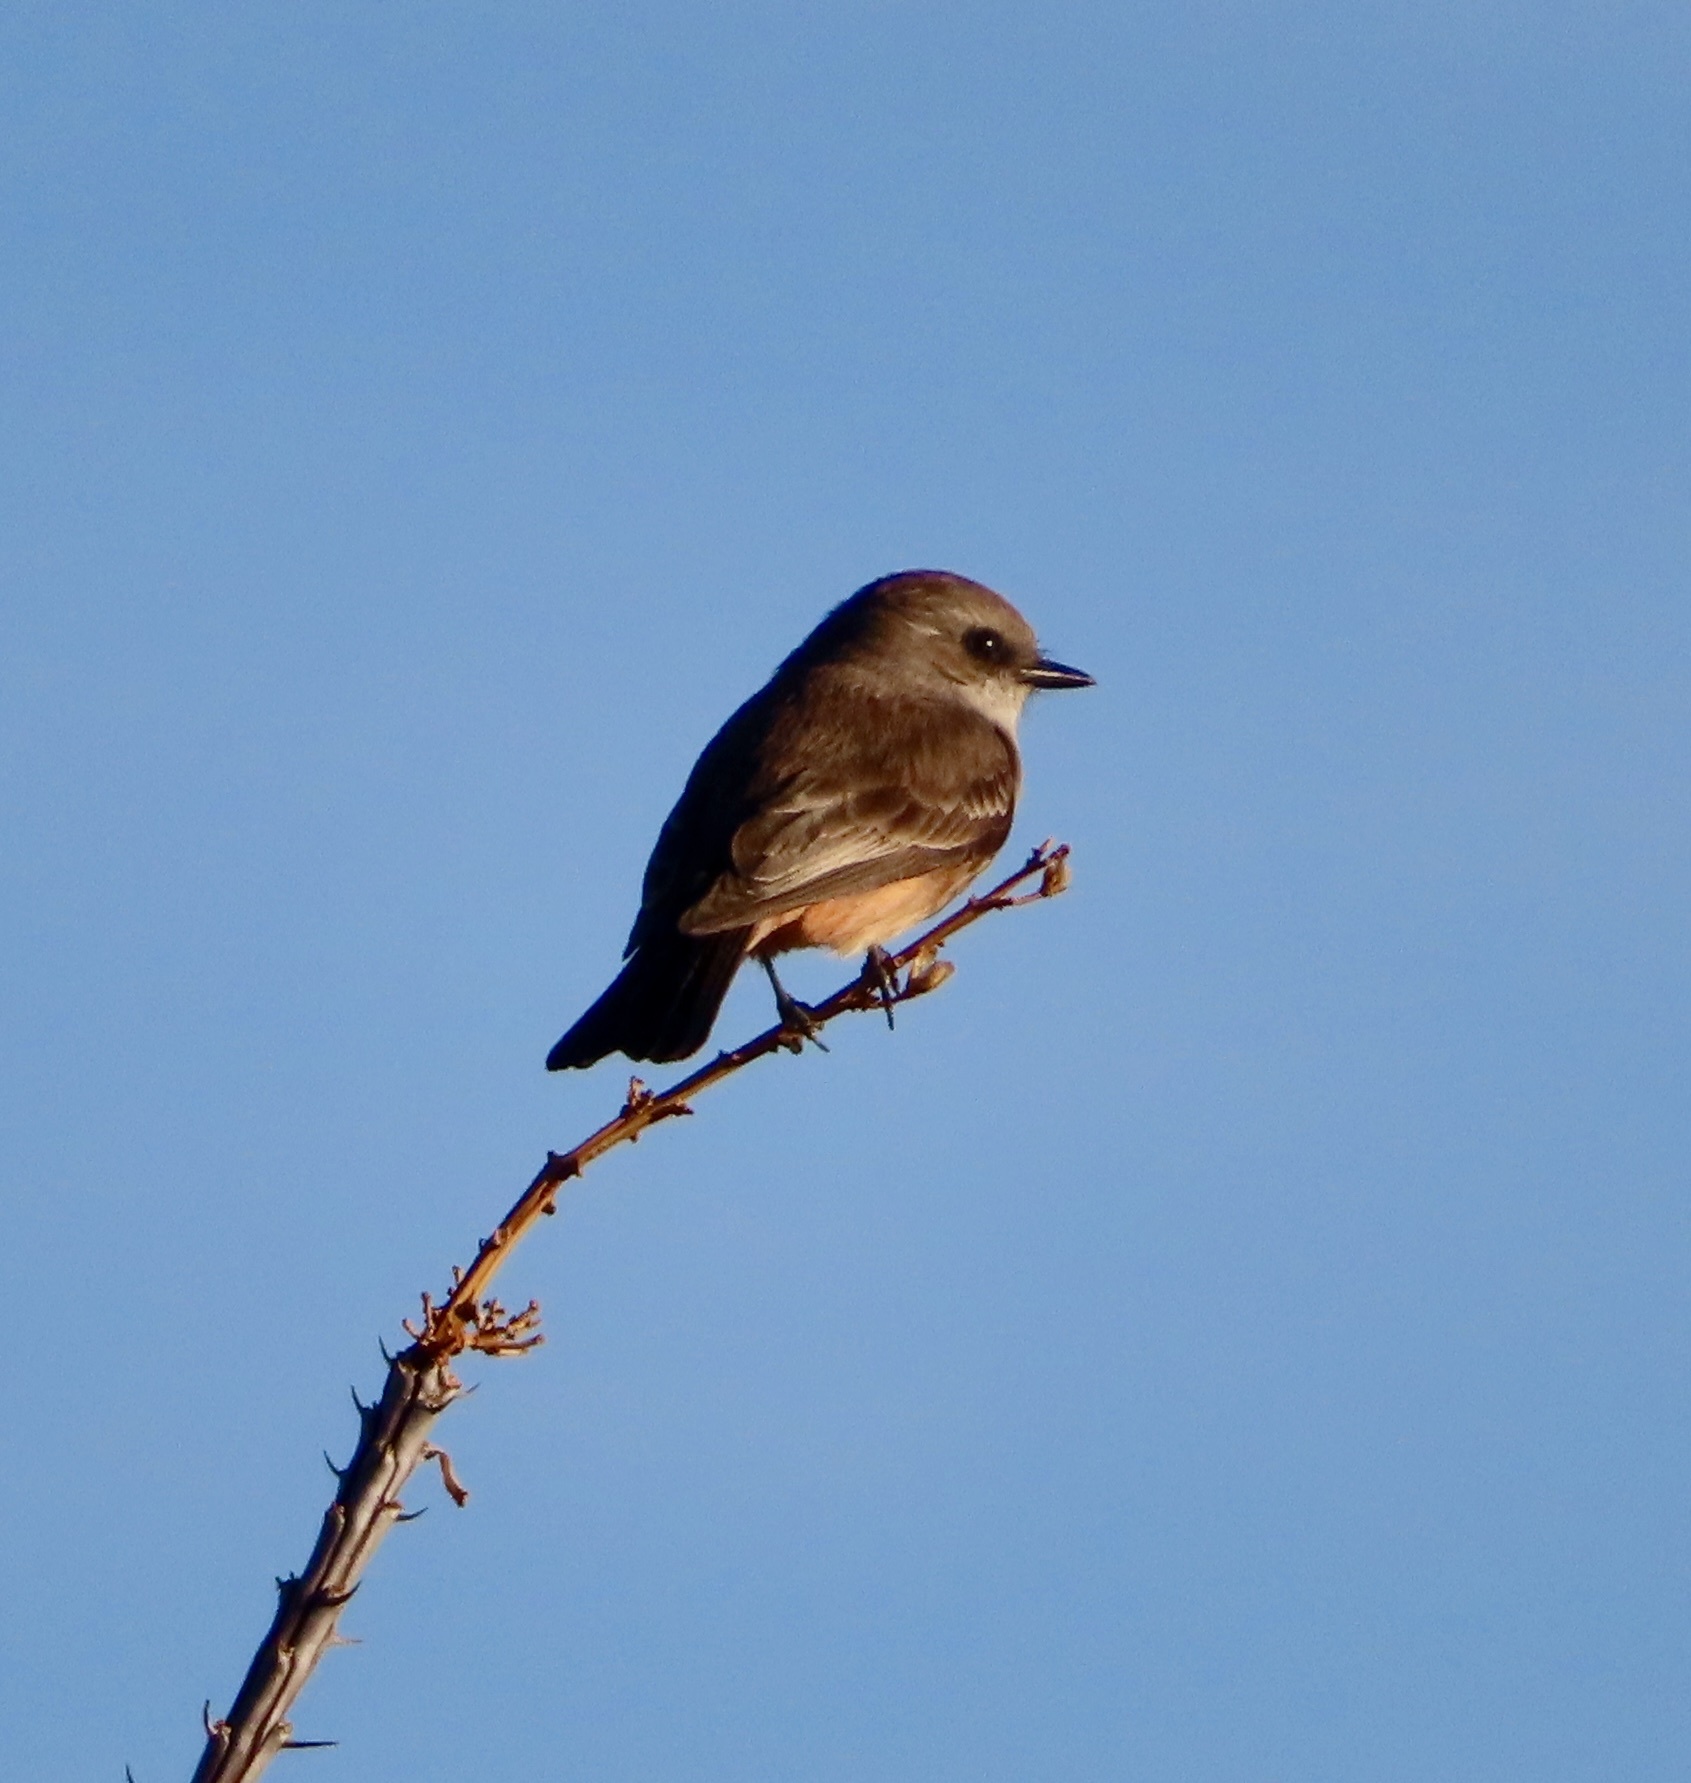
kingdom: Animalia
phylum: Chordata
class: Aves
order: Passeriformes
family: Tyrannidae
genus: Sayornis
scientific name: Sayornis saya
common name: Say's phoebe
